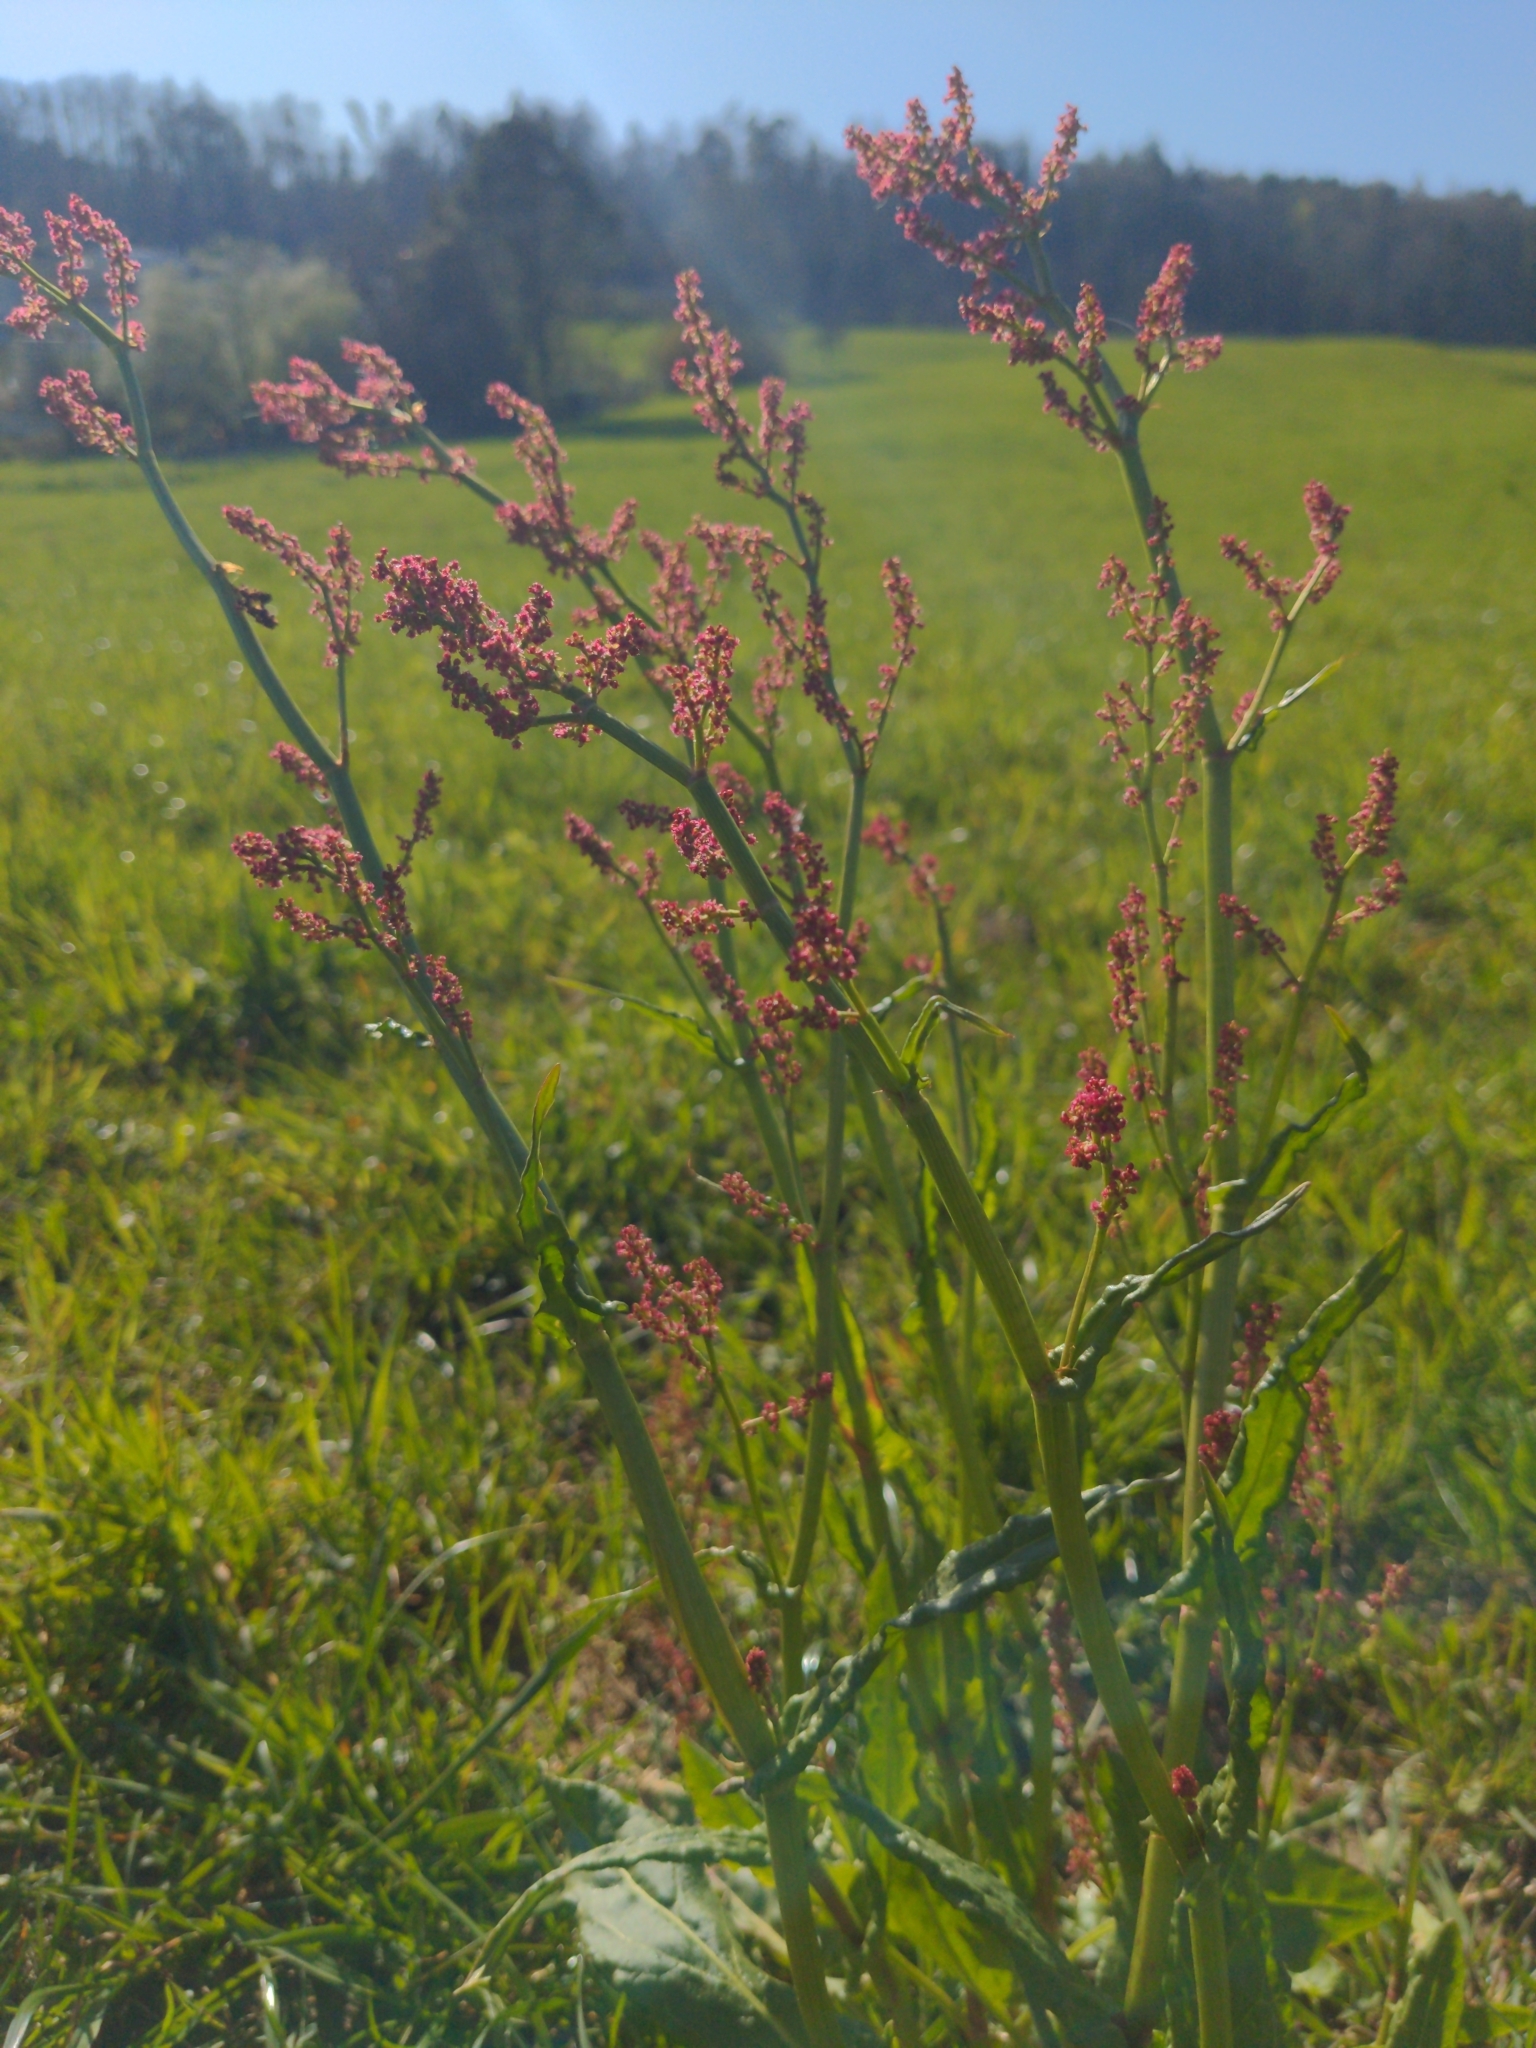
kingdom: Plantae
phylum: Tracheophyta
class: Magnoliopsida
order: Caryophyllales
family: Polygonaceae
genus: Rumex
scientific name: Rumex acetosa
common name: Garden sorrel
